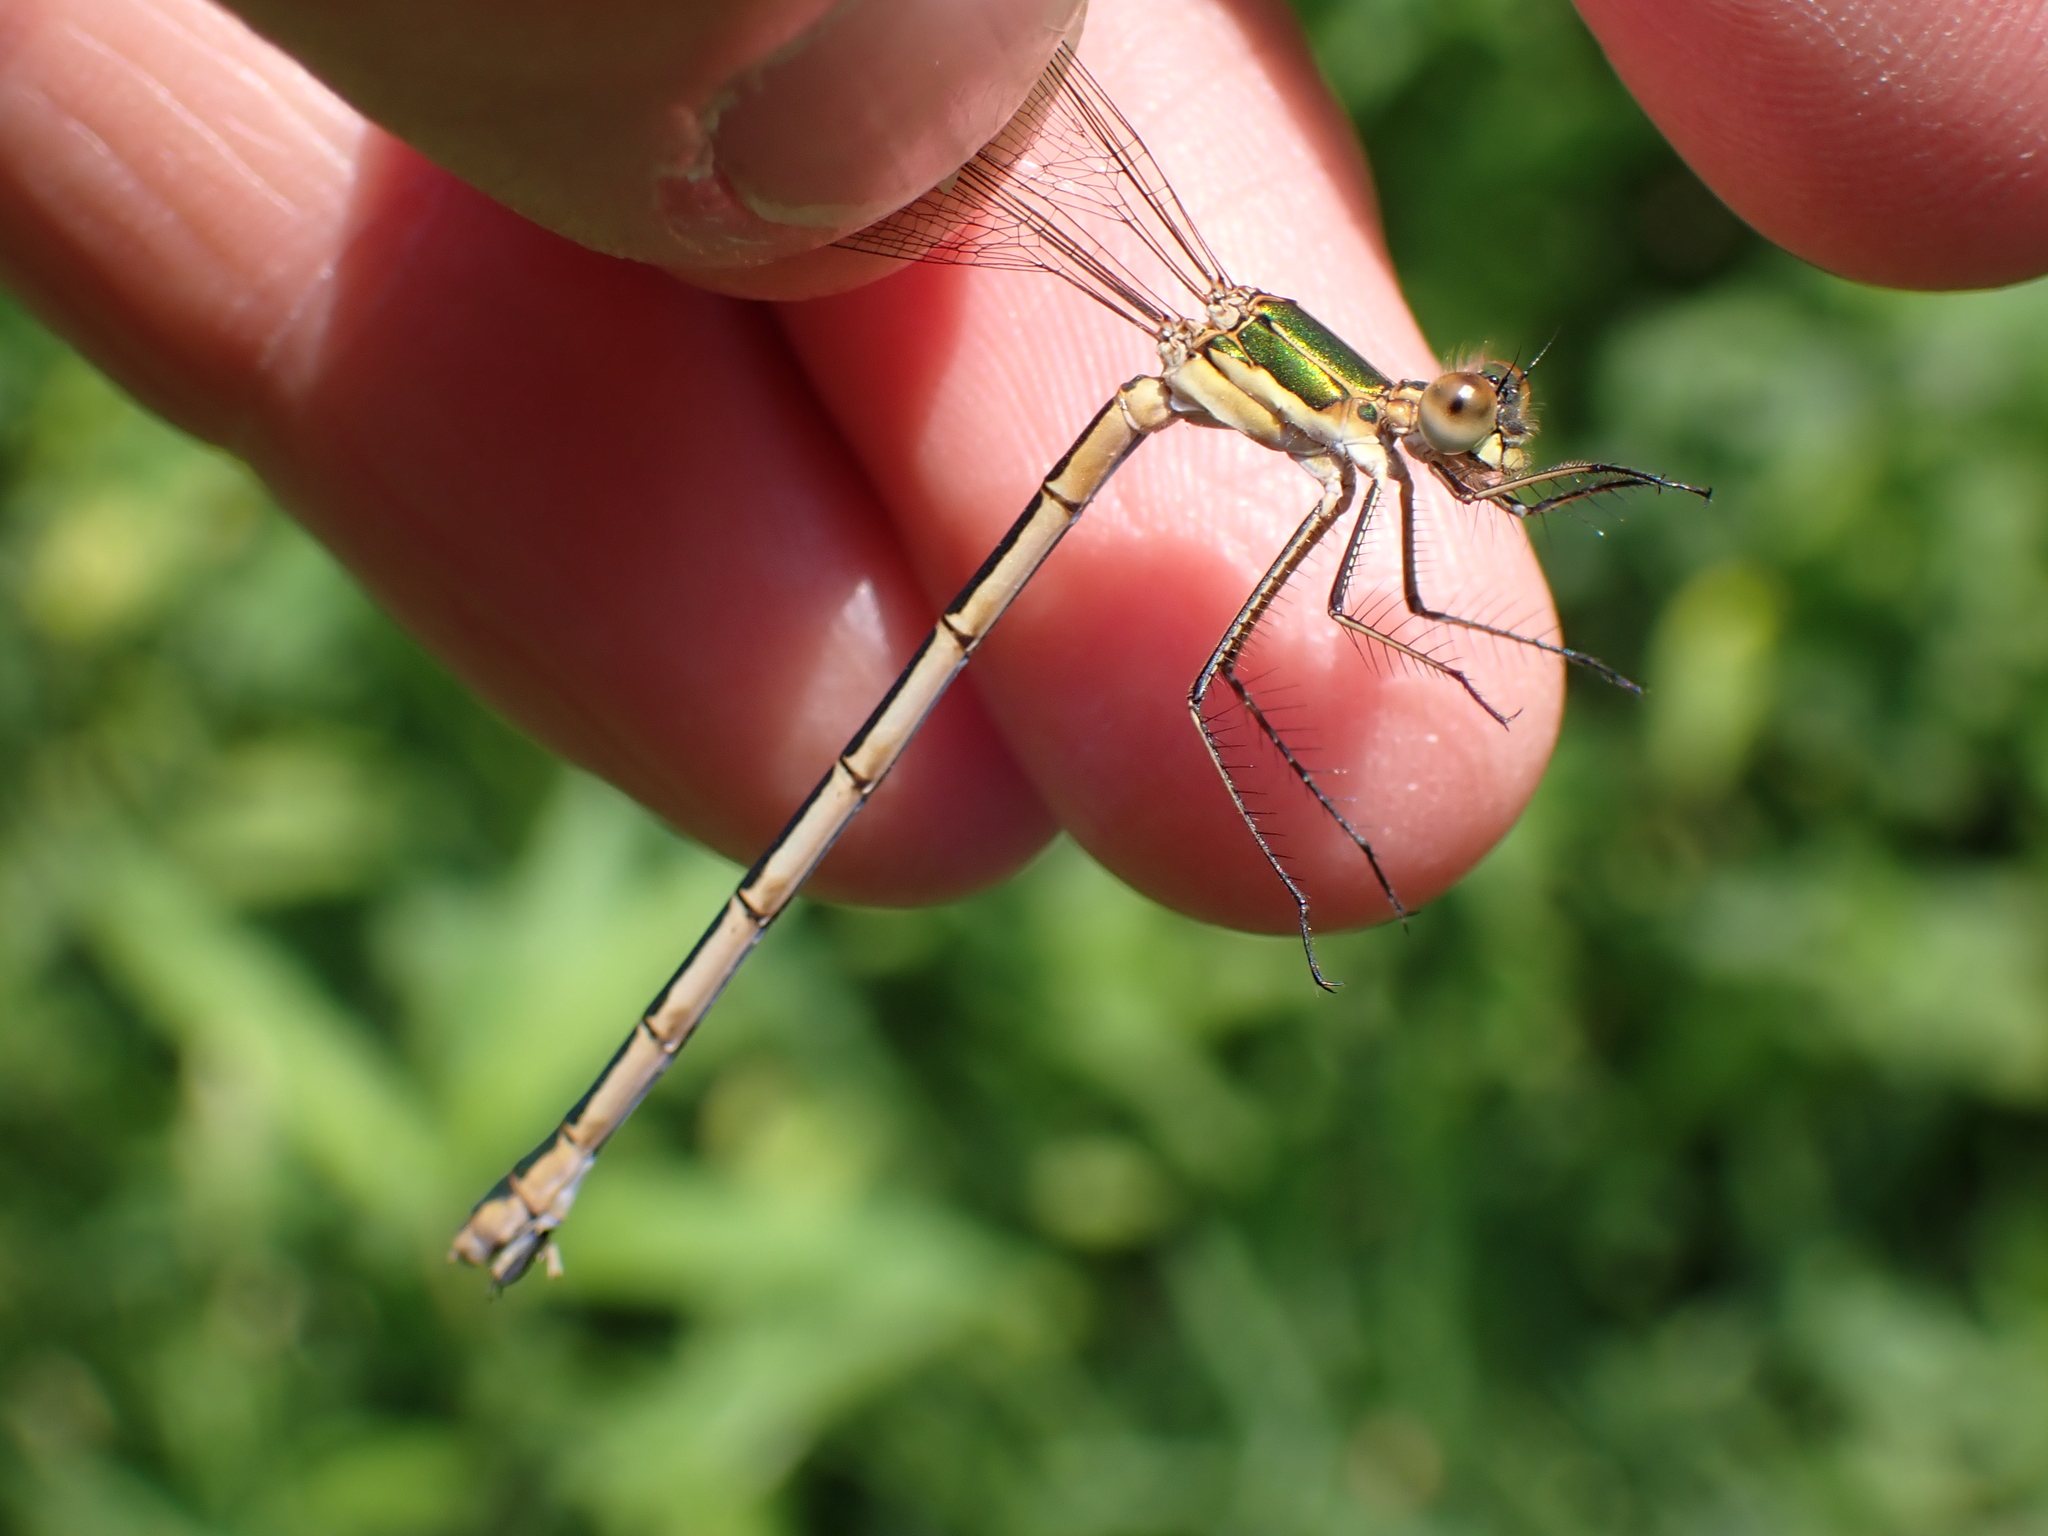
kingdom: Animalia
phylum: Arthropoda
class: Insecta
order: Odonata
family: Lestidae
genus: Lestes
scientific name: Lestes sponsa
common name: Common spreadwing
